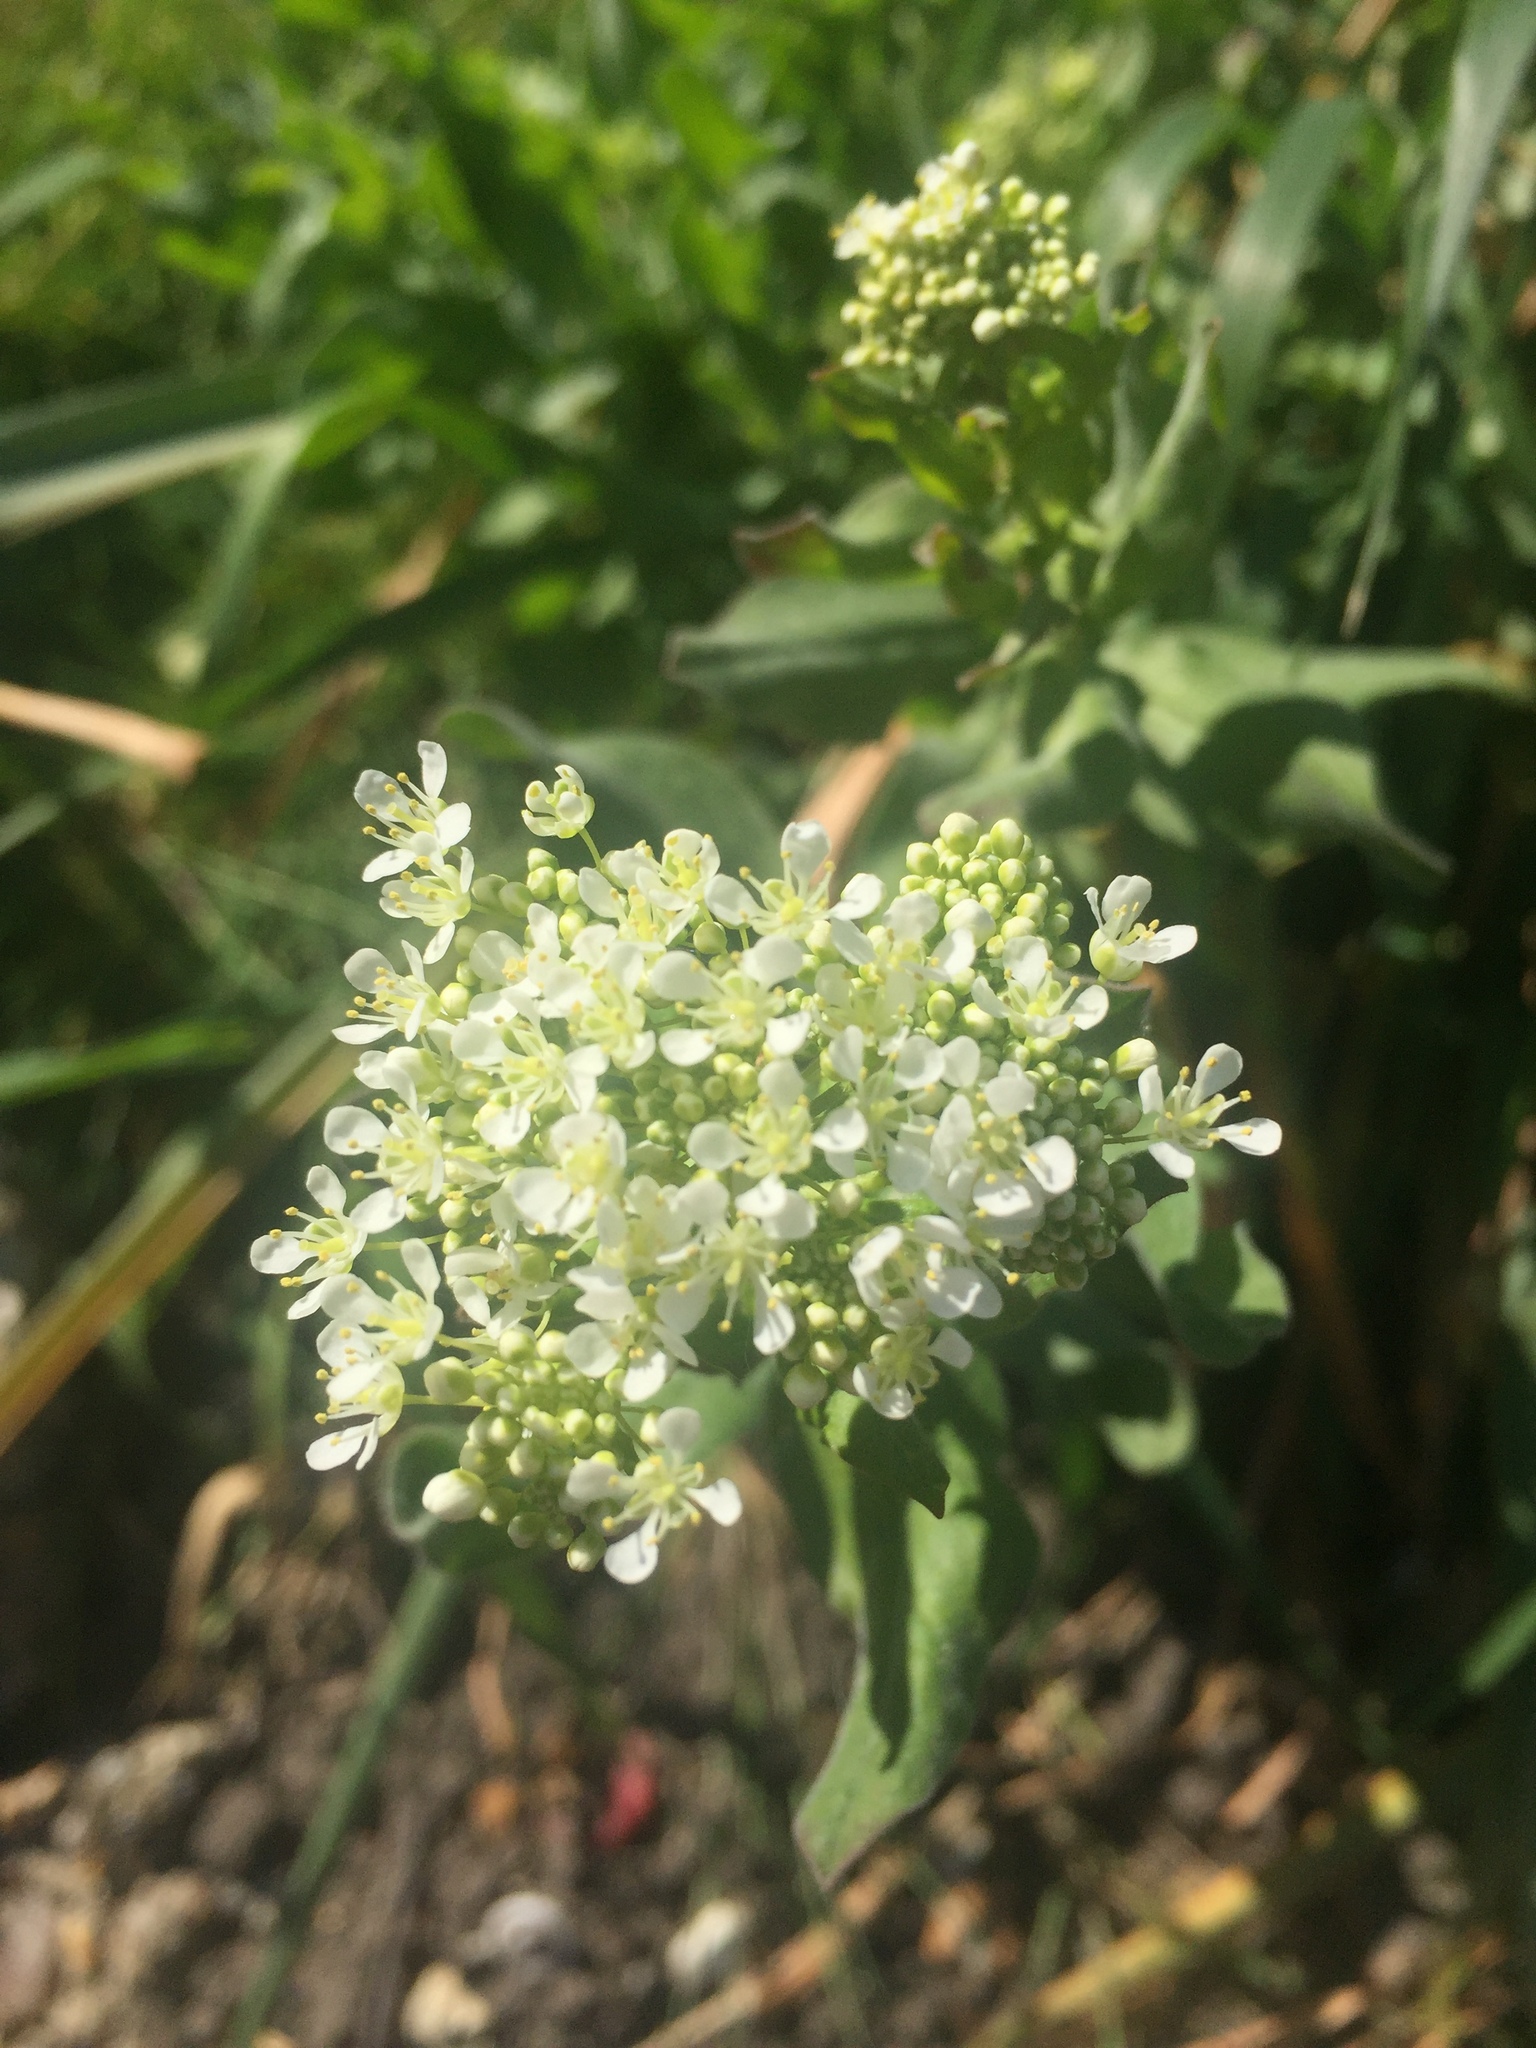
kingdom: Plantae
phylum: Tracheophyta
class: Magnoliopsida
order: Brassicales
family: Brassicaceae
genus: Lepidium
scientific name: Lepidium draba
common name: Hoary cress
